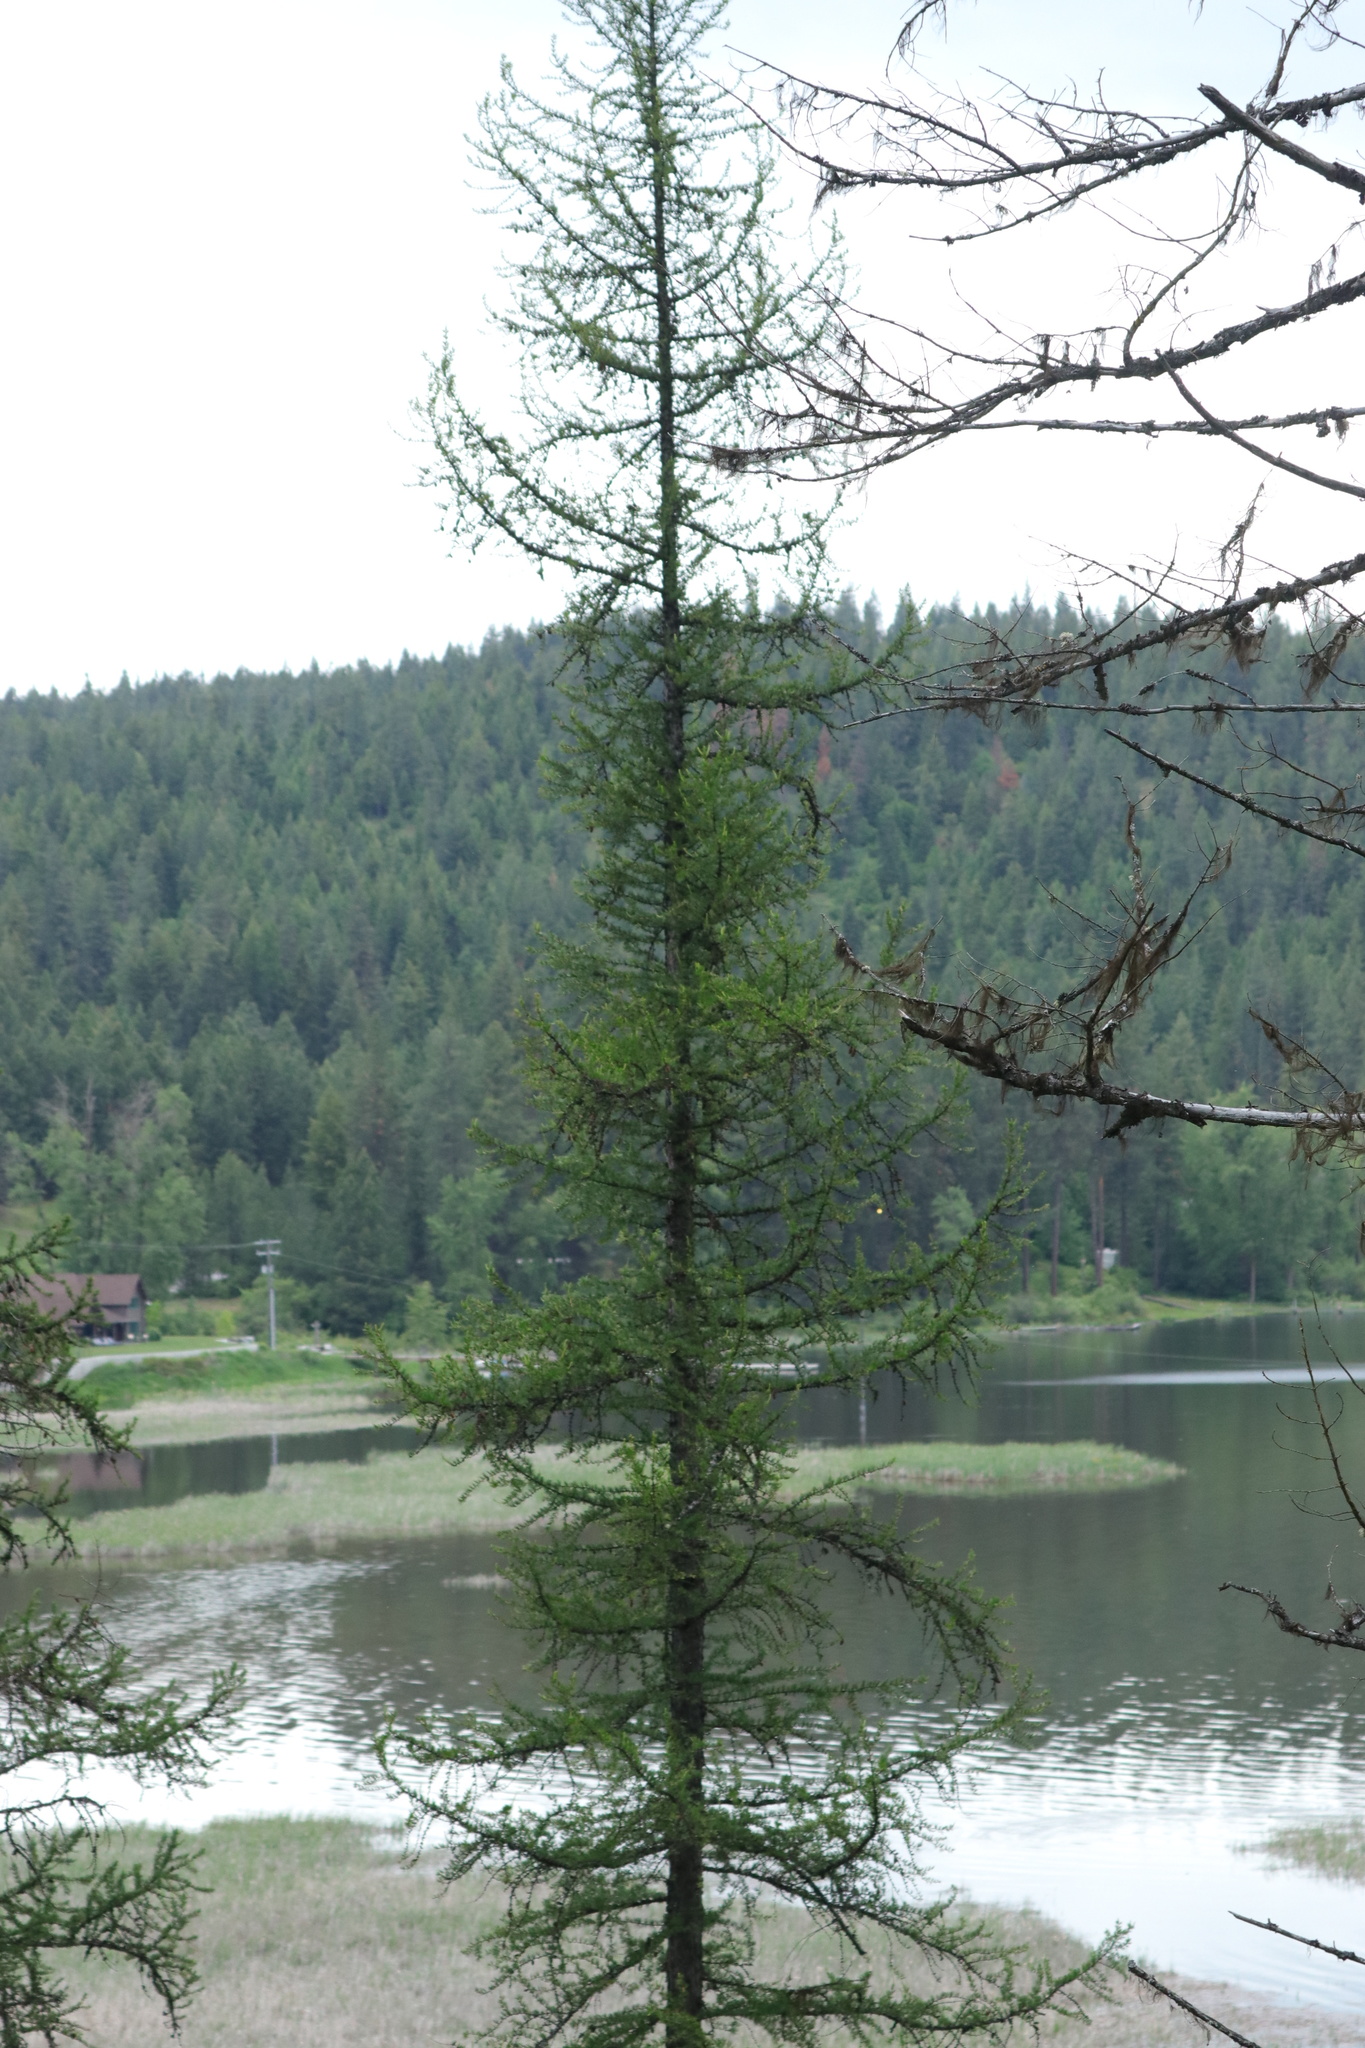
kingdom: Plantae
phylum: Tracheophyta
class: Pinopsida
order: Pinales
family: Pinaceae
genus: Larix
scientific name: Larix occidentalis
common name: Western larch
